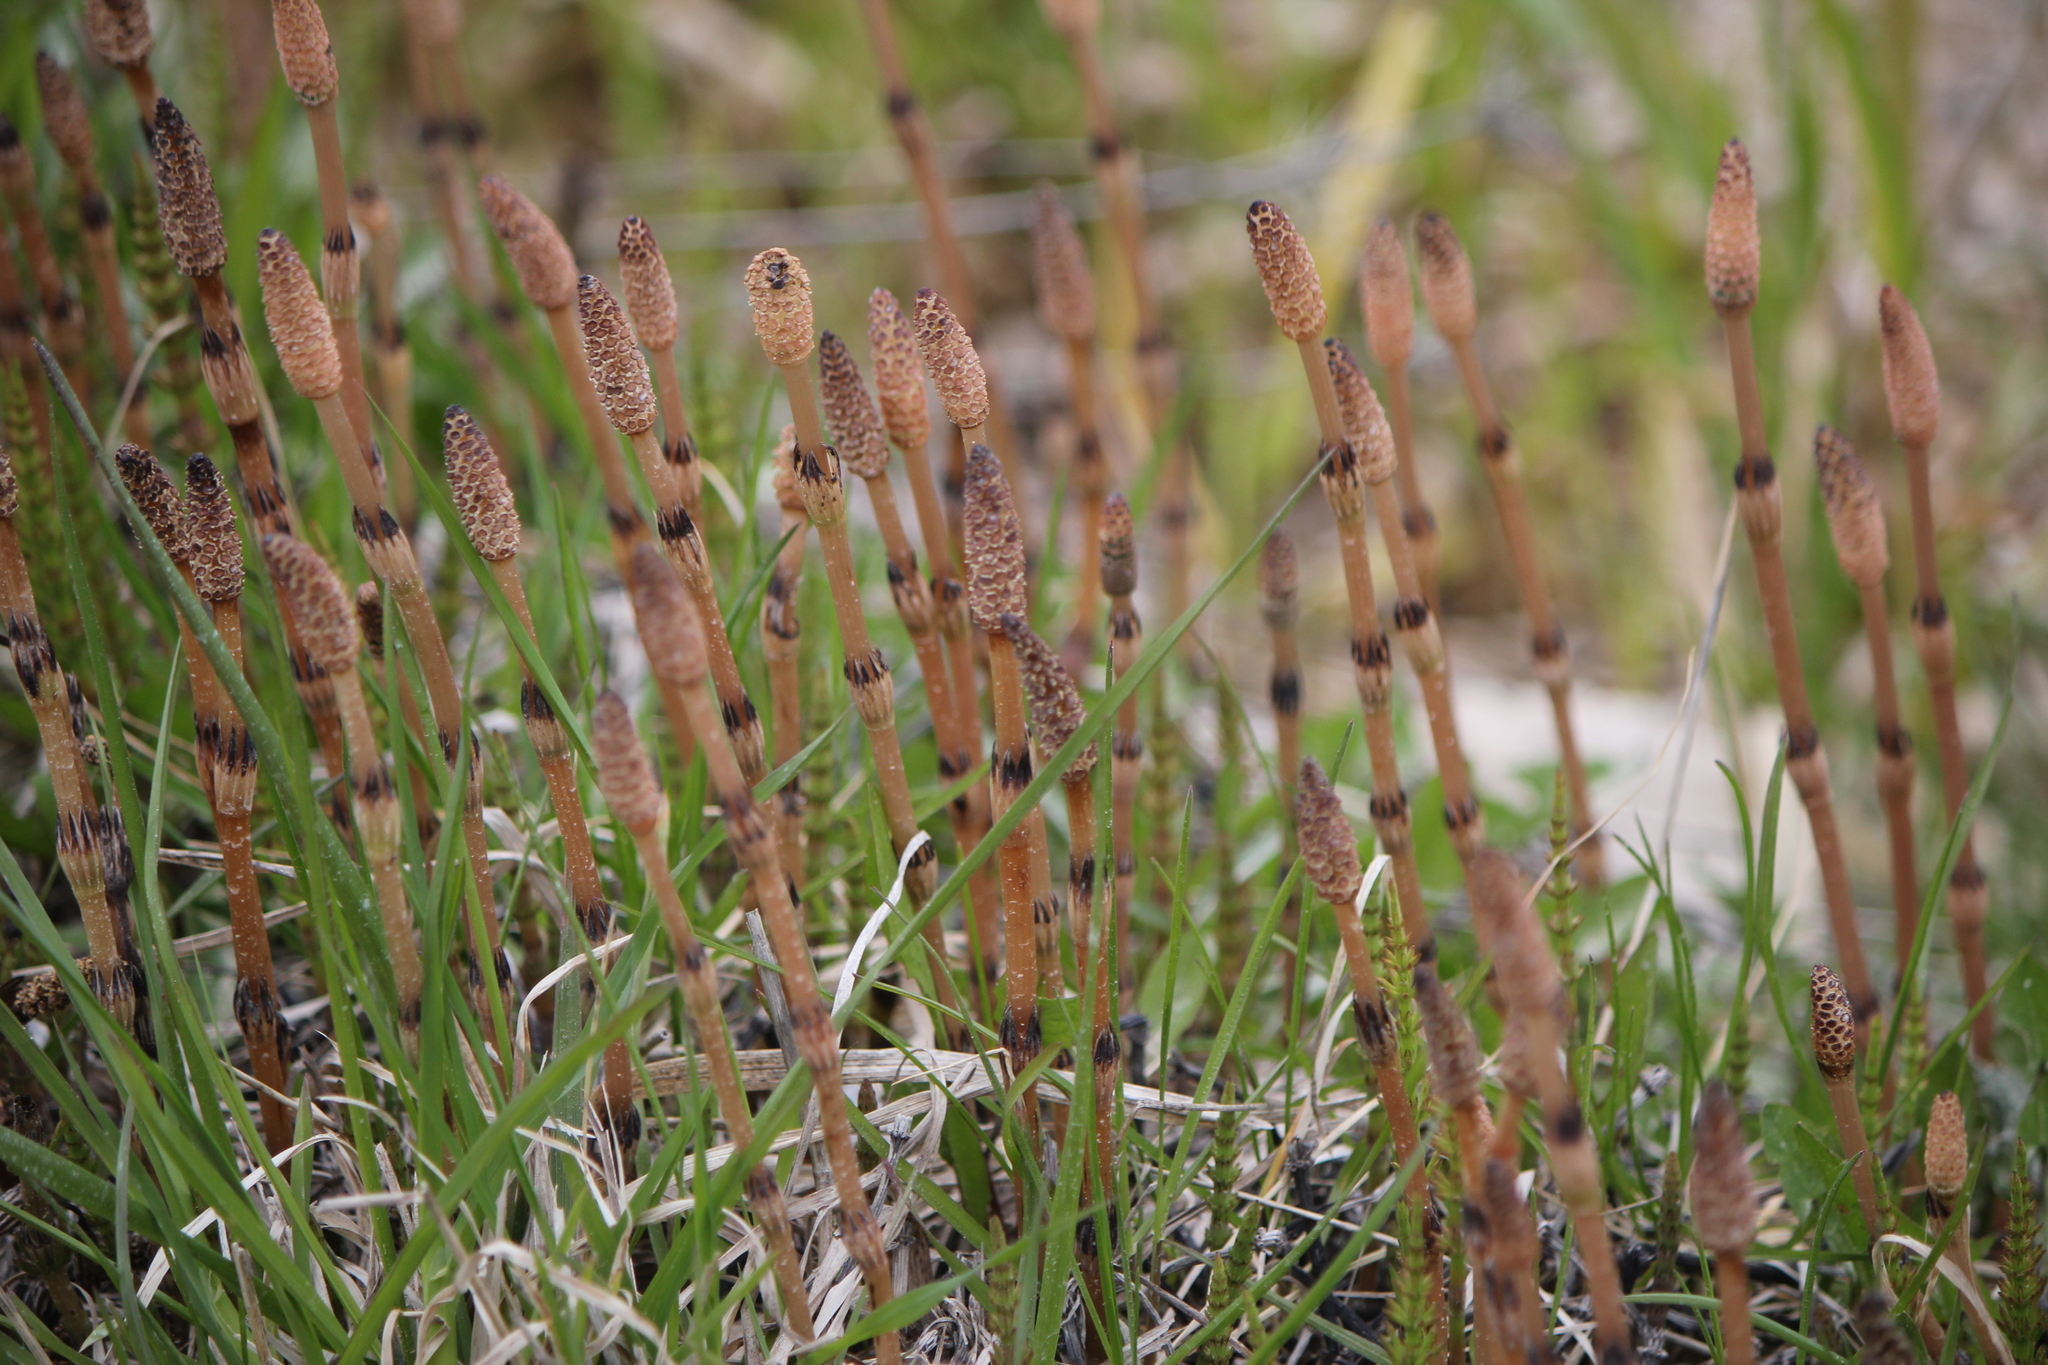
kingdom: Plantae
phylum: Tracheophyta
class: Polypodiopsida
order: Equisetales
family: Equisetaceae
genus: Equisetum
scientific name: Equisetum arvense
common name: Field horsetail
